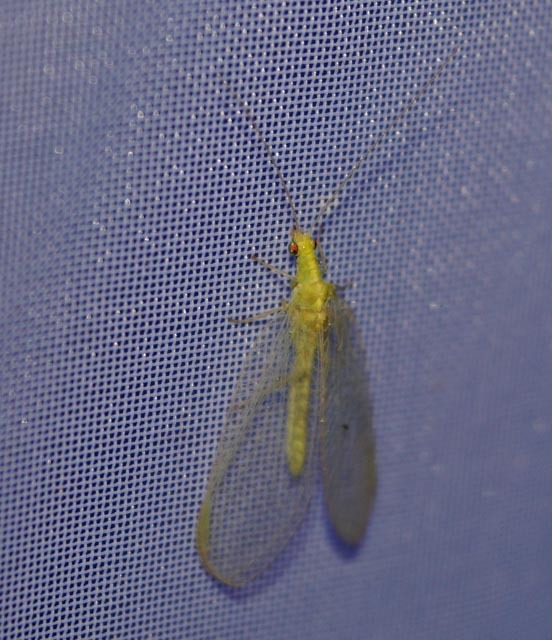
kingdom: Animalia
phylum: Arthropoda
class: Insecta
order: Neuroptera
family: Chrysopidae
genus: Chrysoperla
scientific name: Chrysoperla
